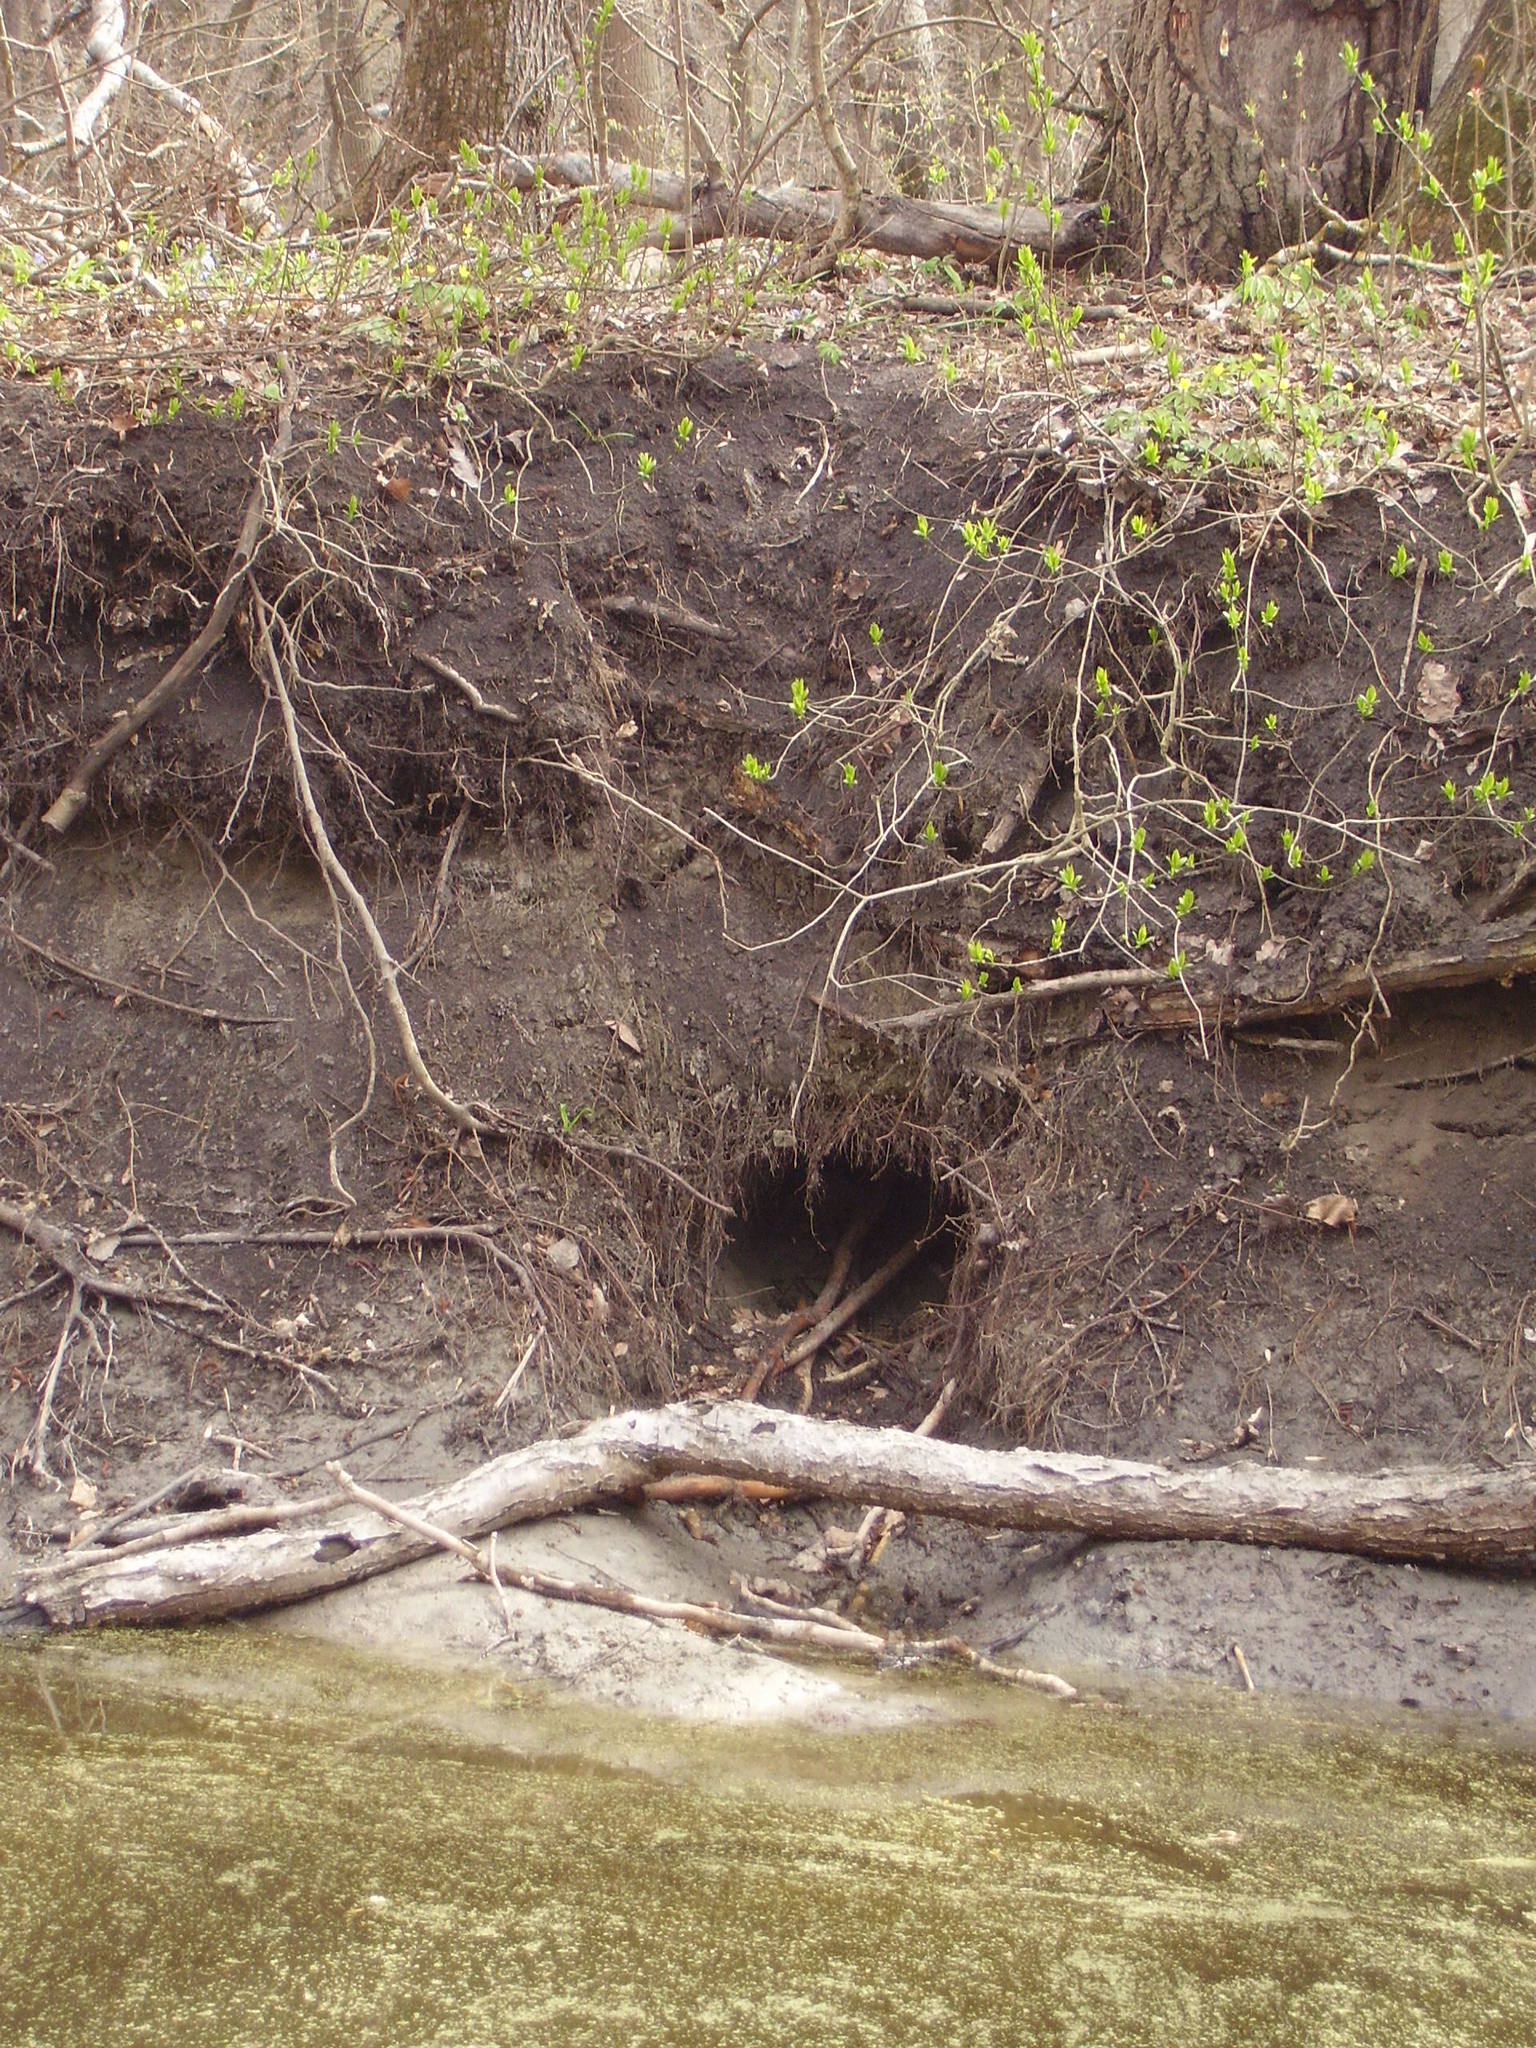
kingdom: Animalia
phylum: Chordata
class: Mammalia
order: Rodentia
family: Castoridae
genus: Castor
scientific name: Castor fiber
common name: Eurasian beaver
